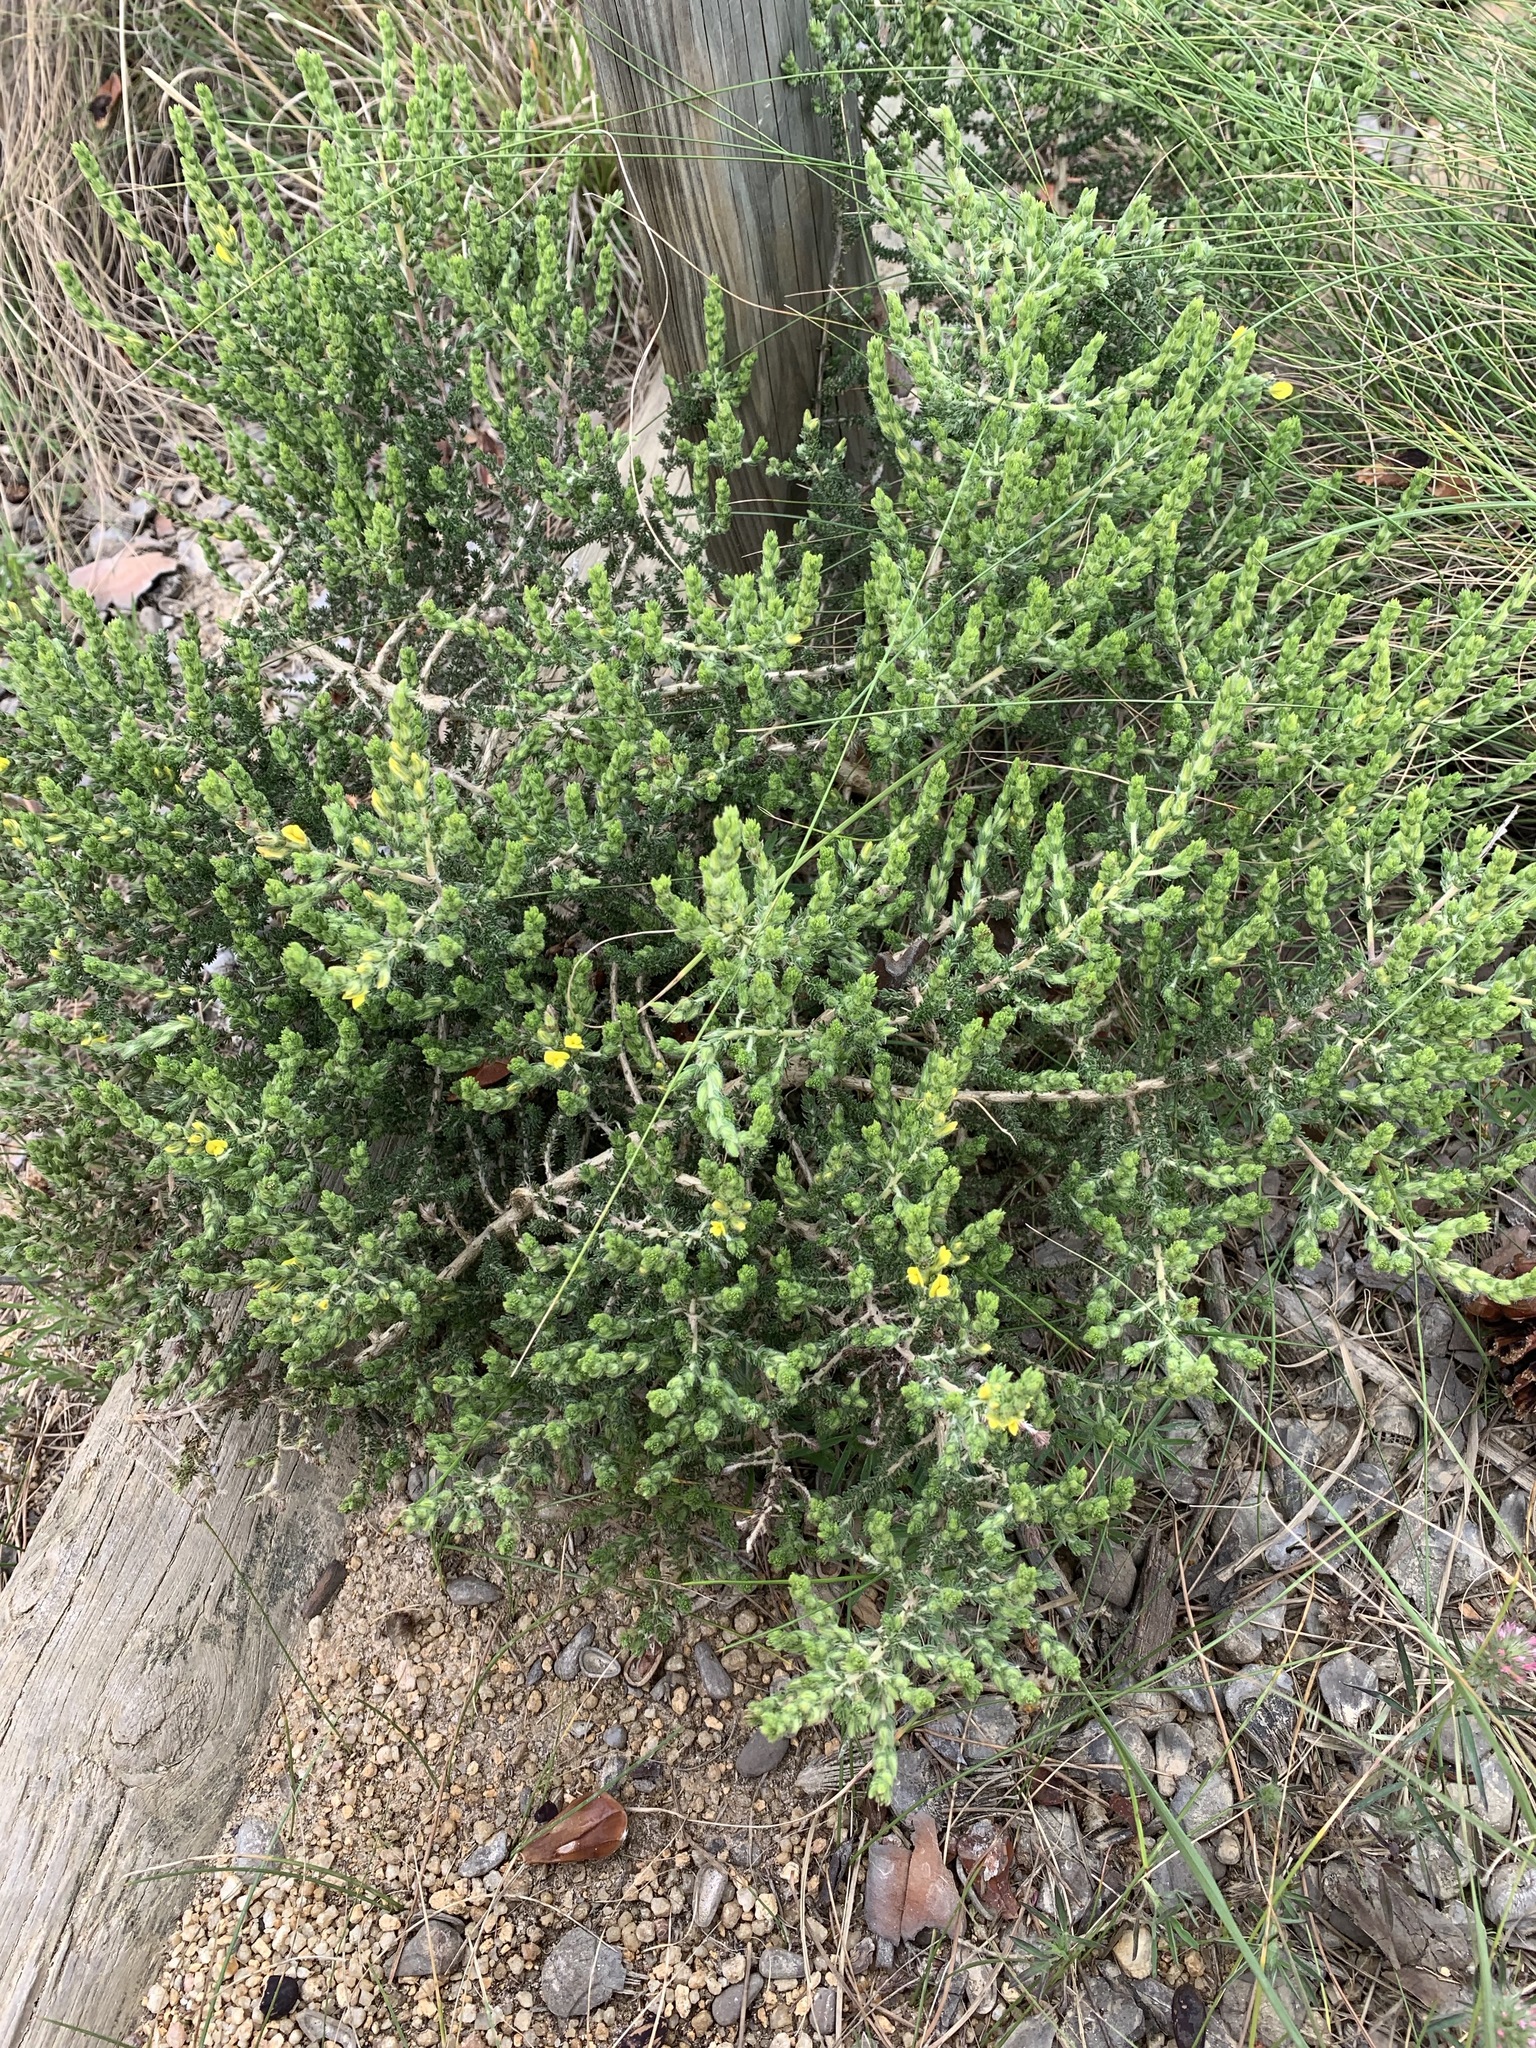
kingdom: Plantae
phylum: Tracheophyta
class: Magnoliopsida
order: Fabales
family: Fabaceae
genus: Aspalathus
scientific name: Aspalathus ericifolia
